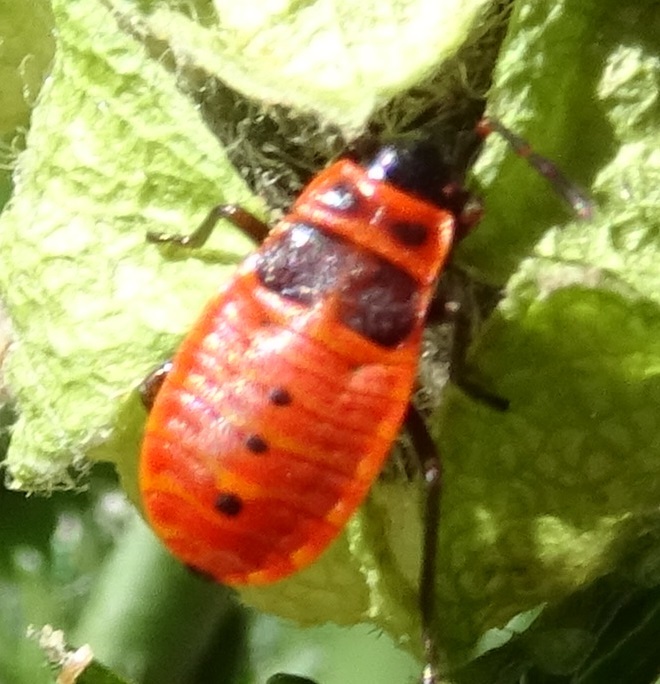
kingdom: Animalia
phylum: Arthropoda
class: Insecta
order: Hemiptera
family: Pyrrhocoridae
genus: Pyrrhocoris
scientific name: Pyrrhocoris apterus
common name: Firebug
